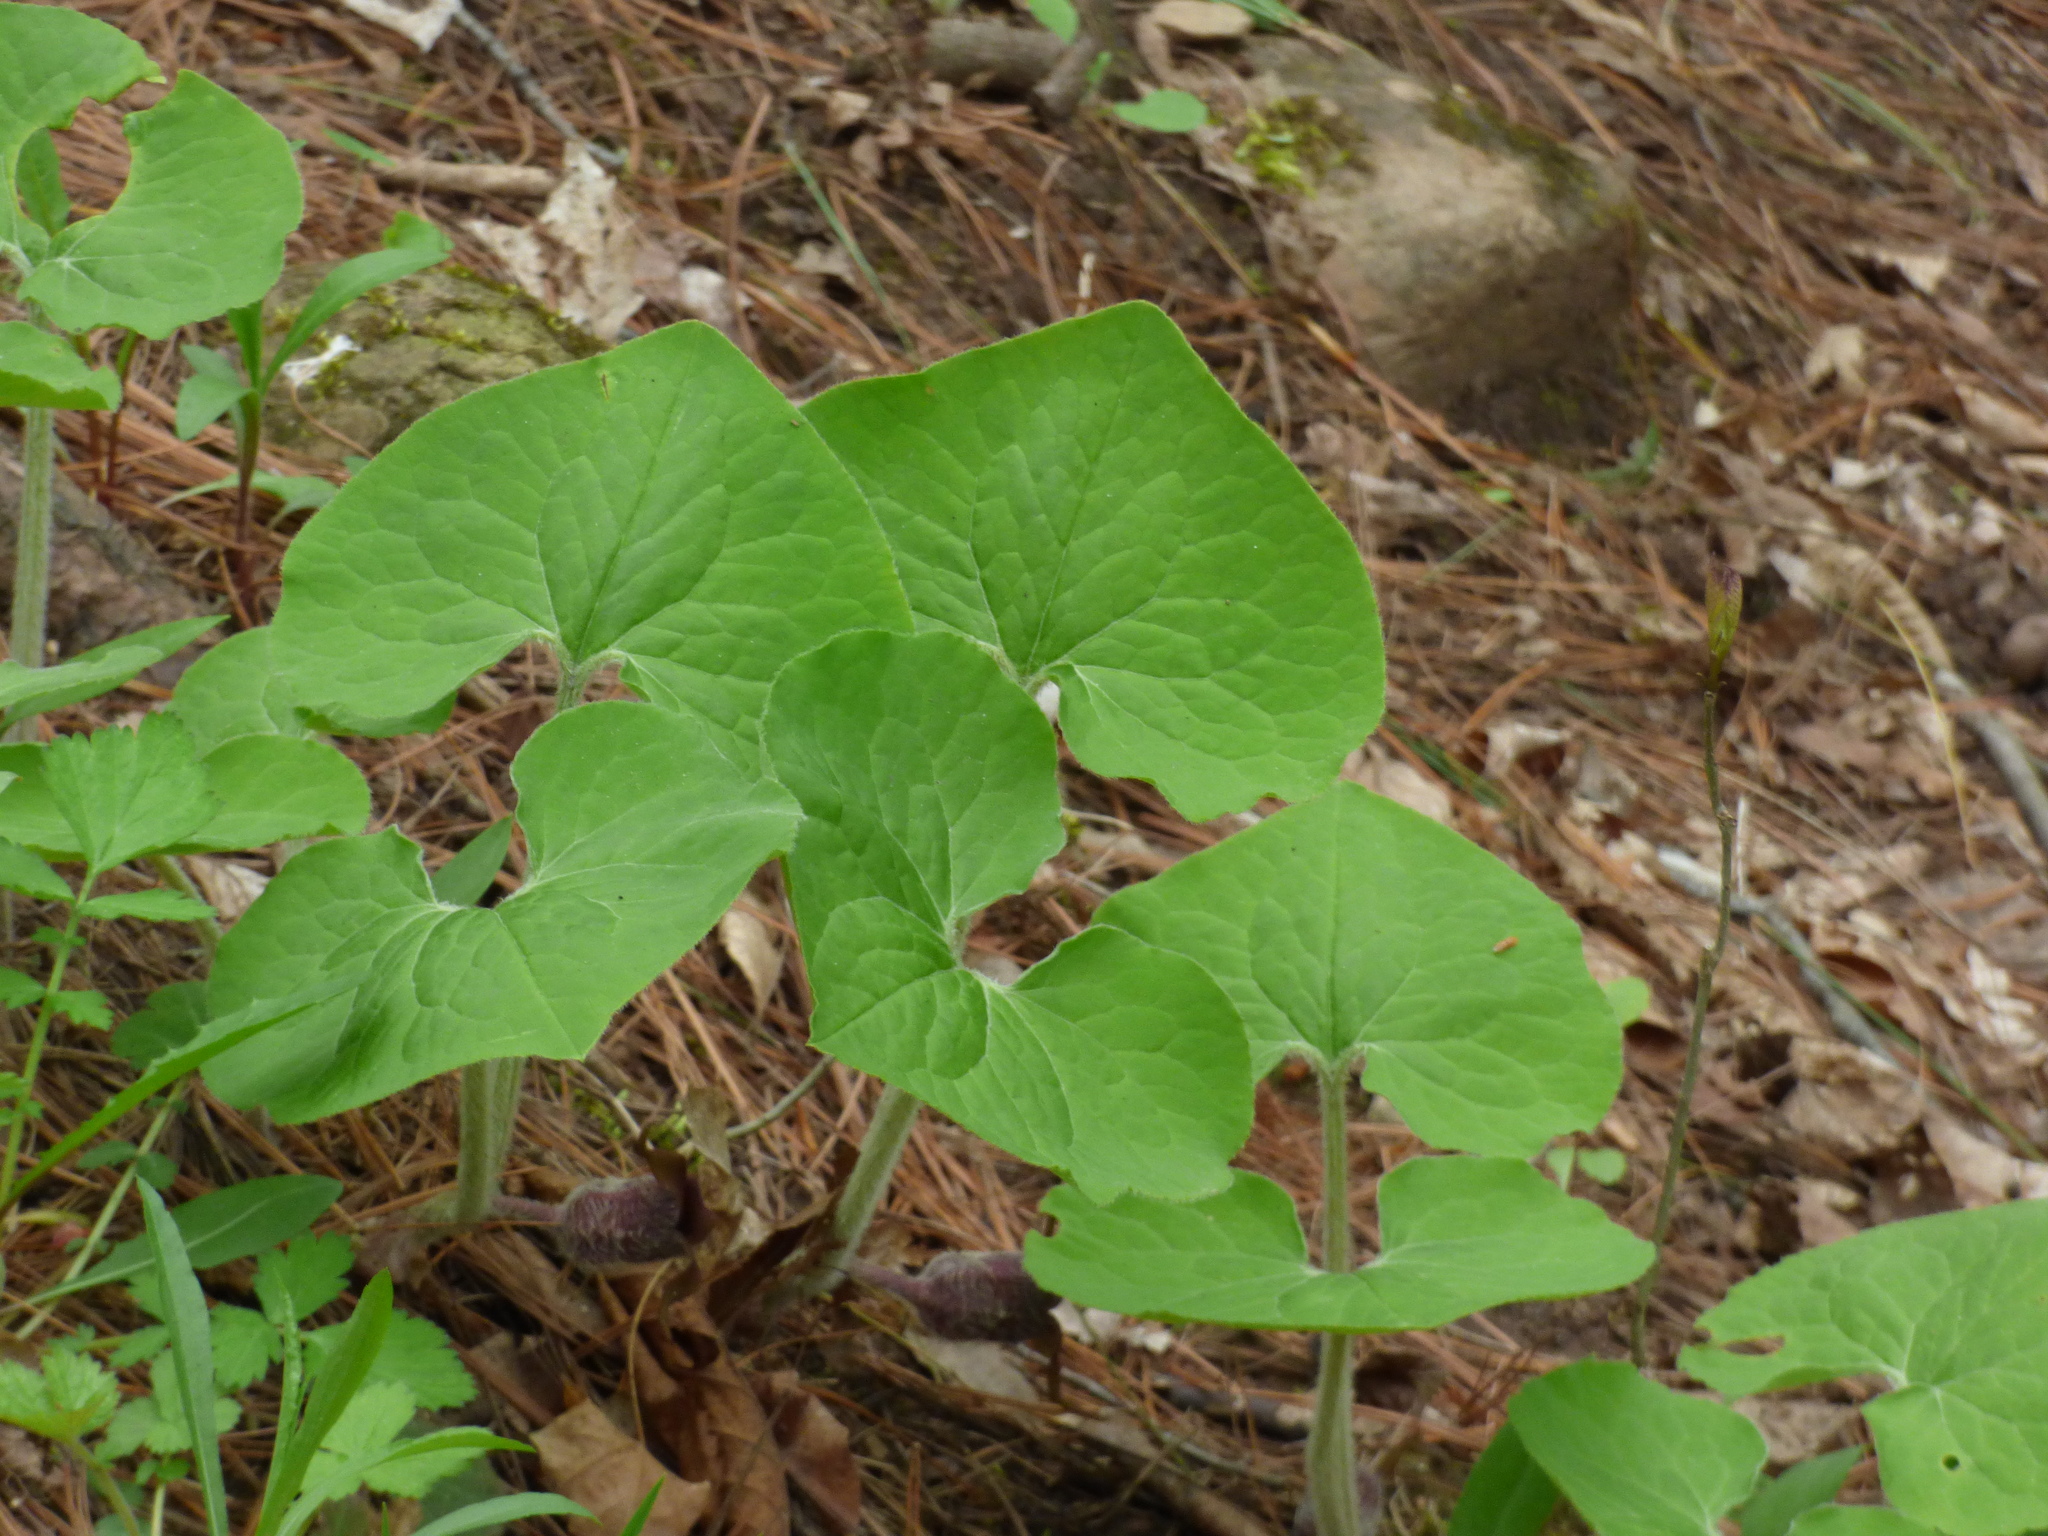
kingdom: Plantae
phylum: Tracheophyta
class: Magnoliopsida
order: Piperales
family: Aristolochiaceae
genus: Asarum
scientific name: Asarum canadense
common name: Wild ginger
